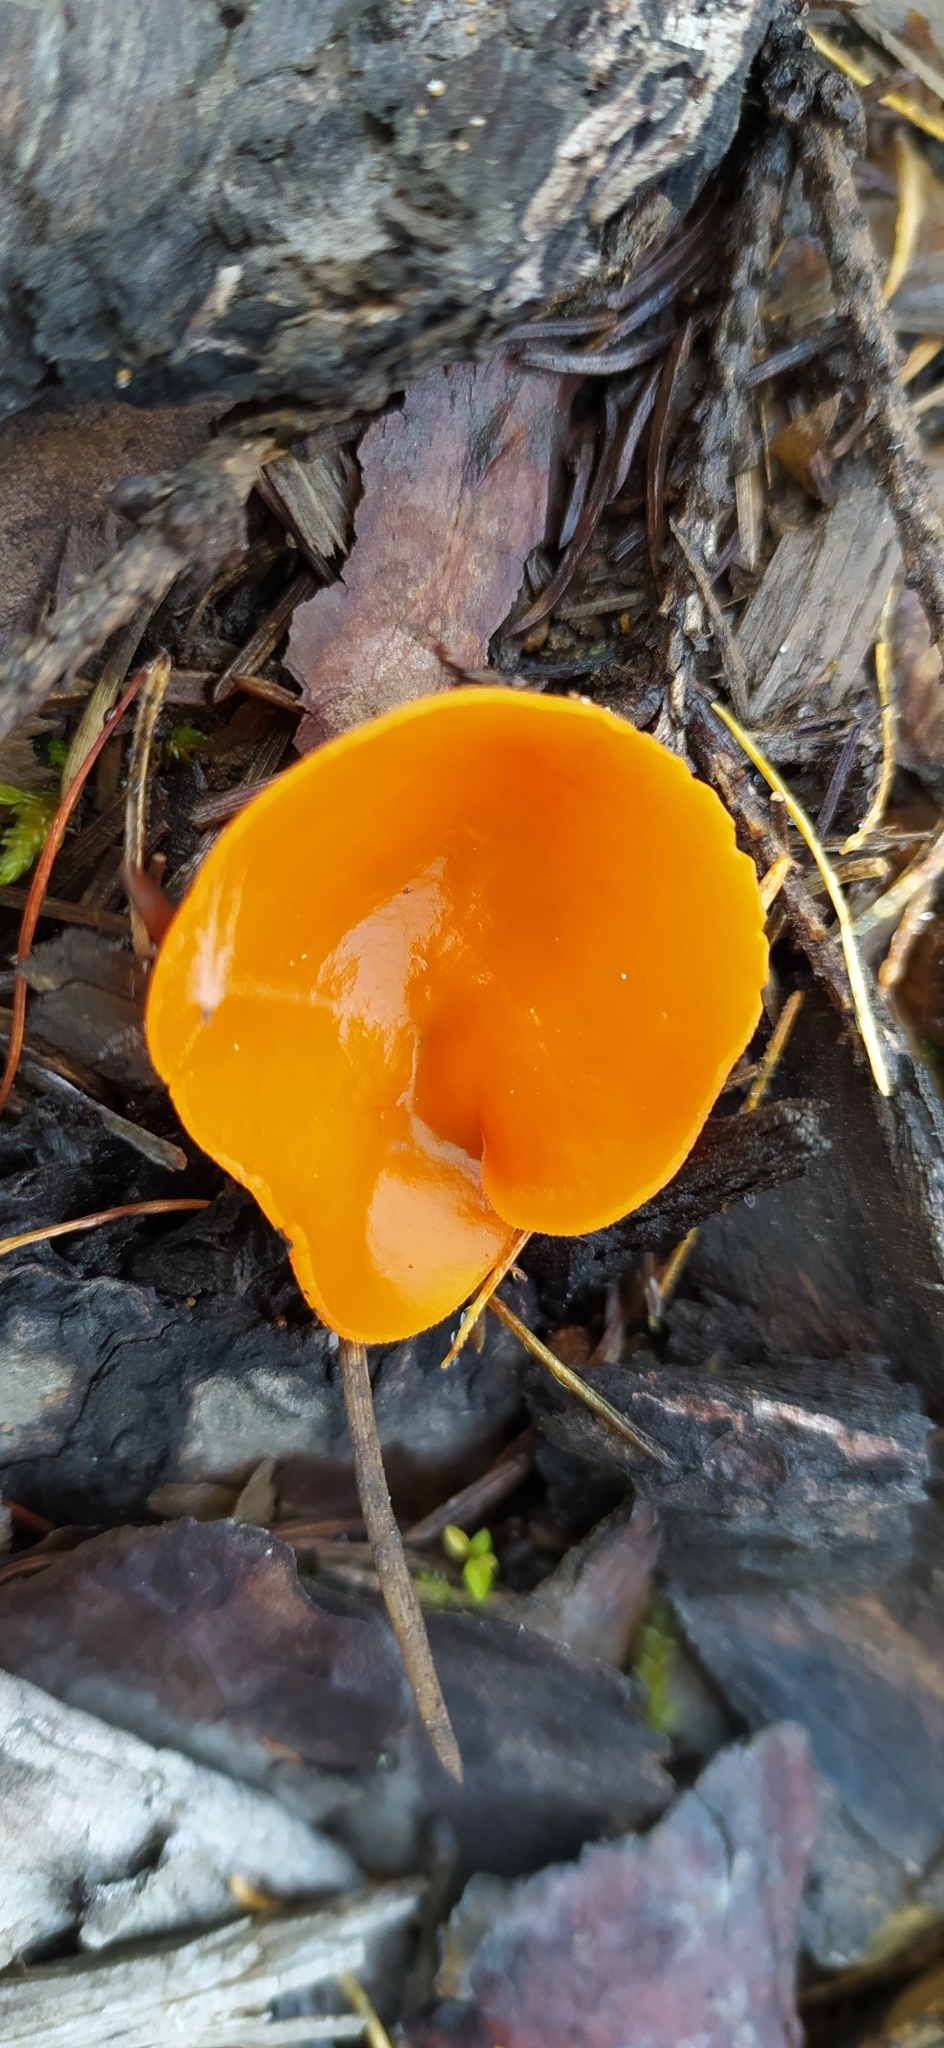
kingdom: Fungi
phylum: Ascomycota
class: Pezizomycetes
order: Pezizales
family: Pyronemataceae
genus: Aleuria
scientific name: Aleuria aurantia
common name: Orange peel fungus
